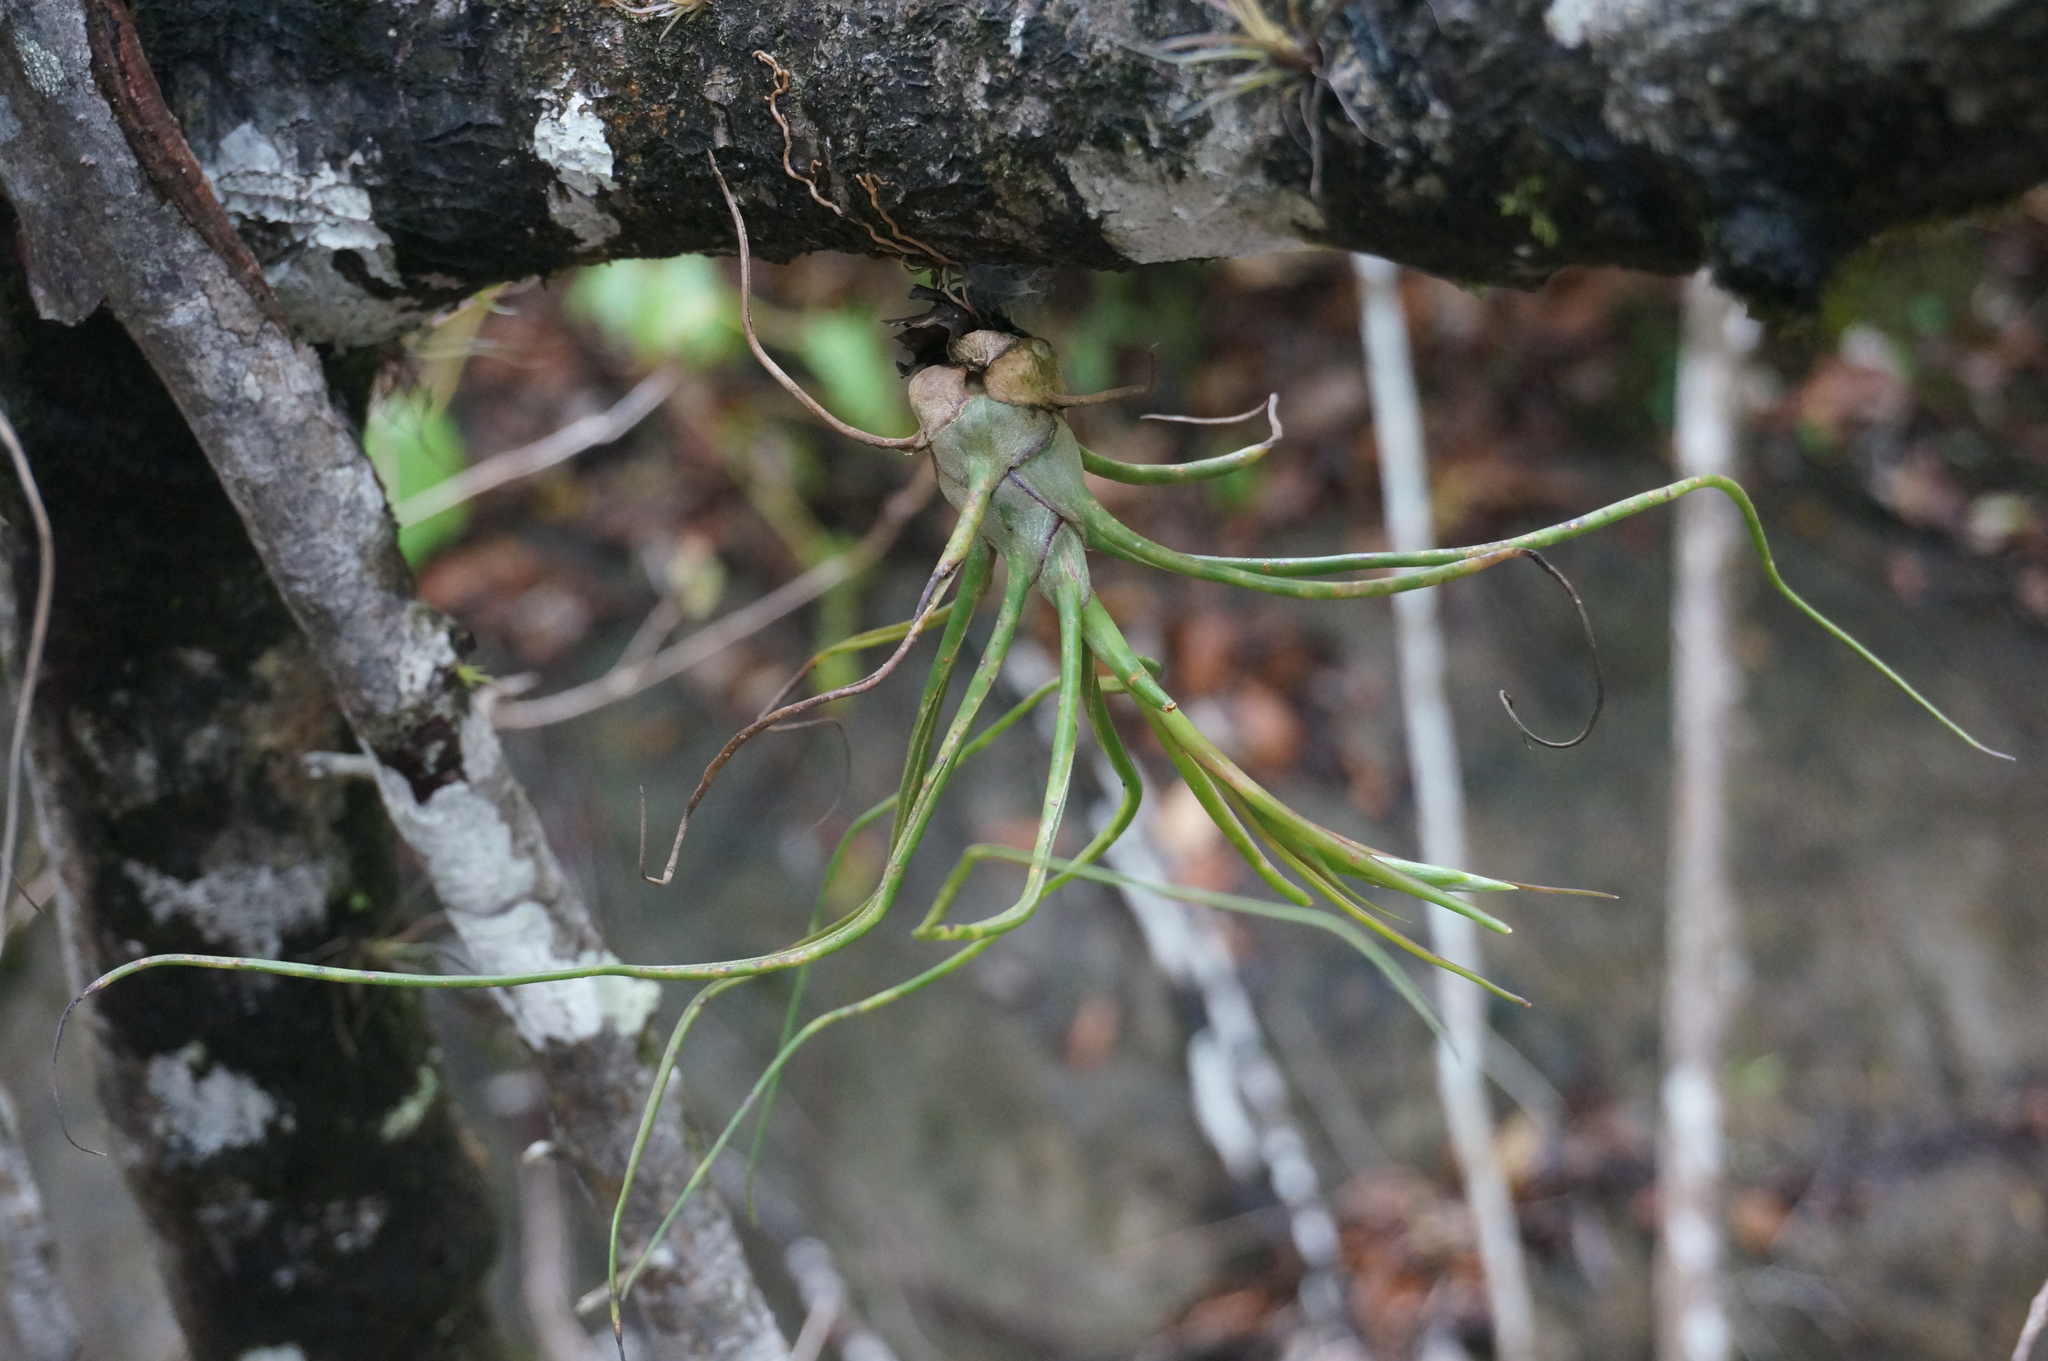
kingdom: Plantae
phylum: Tracheophyta
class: Liliopsida
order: Poales
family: Bromeliaceae
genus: Tillandsia
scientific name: Tillandsia bulbosa
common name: Bulbous airplant
